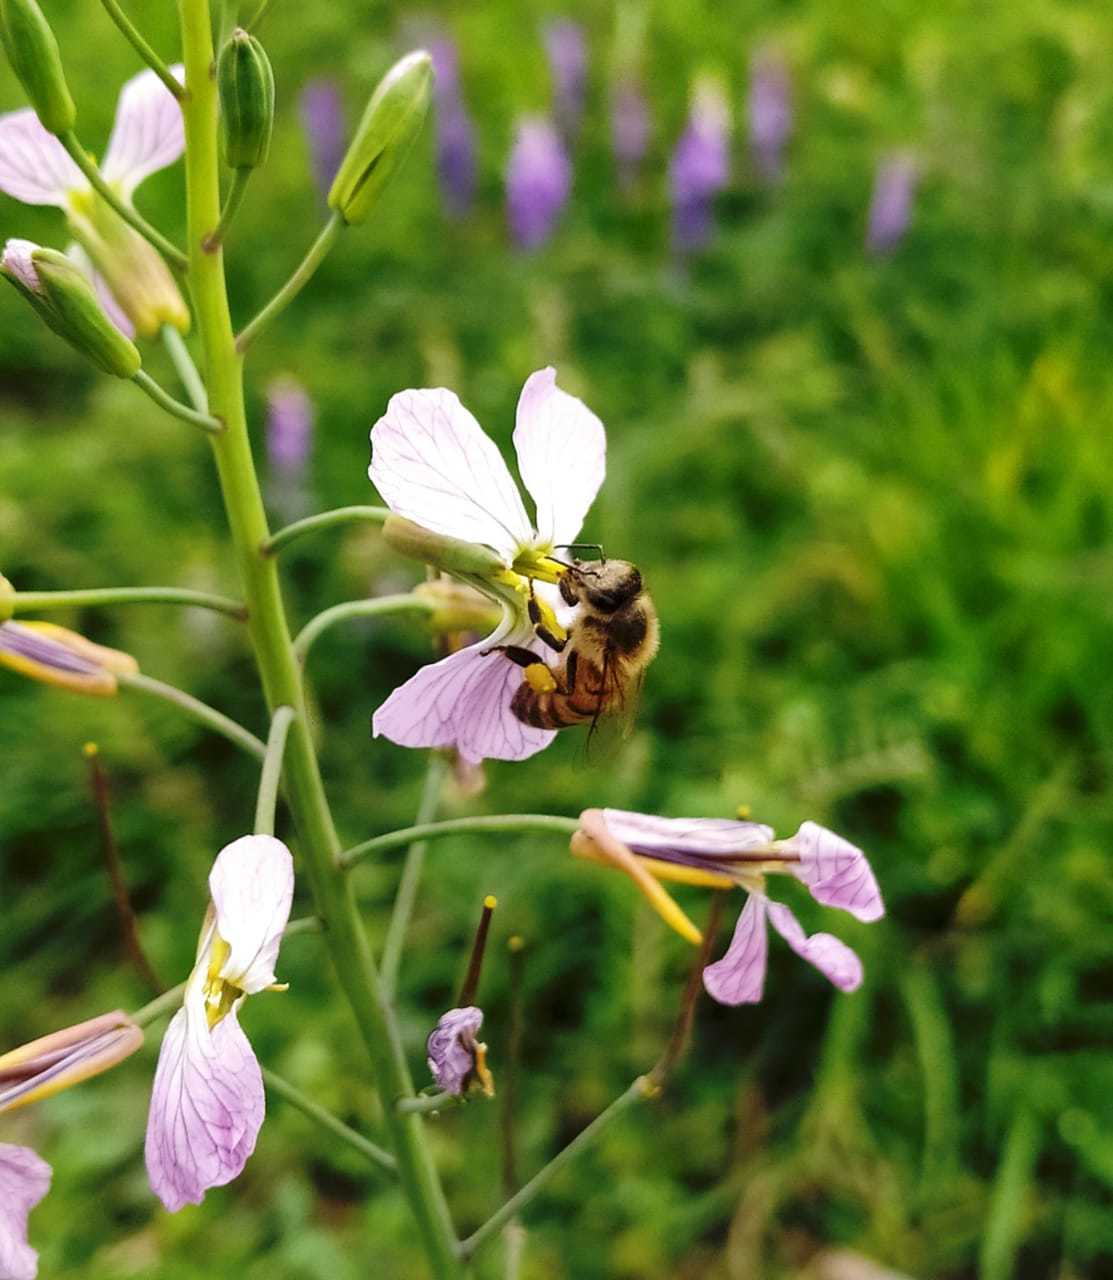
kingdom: Animalia
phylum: Arthropoda
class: Insecta
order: Hymenoptera
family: Apidae
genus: Apis
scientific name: Apis mellifera
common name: Honey bee
